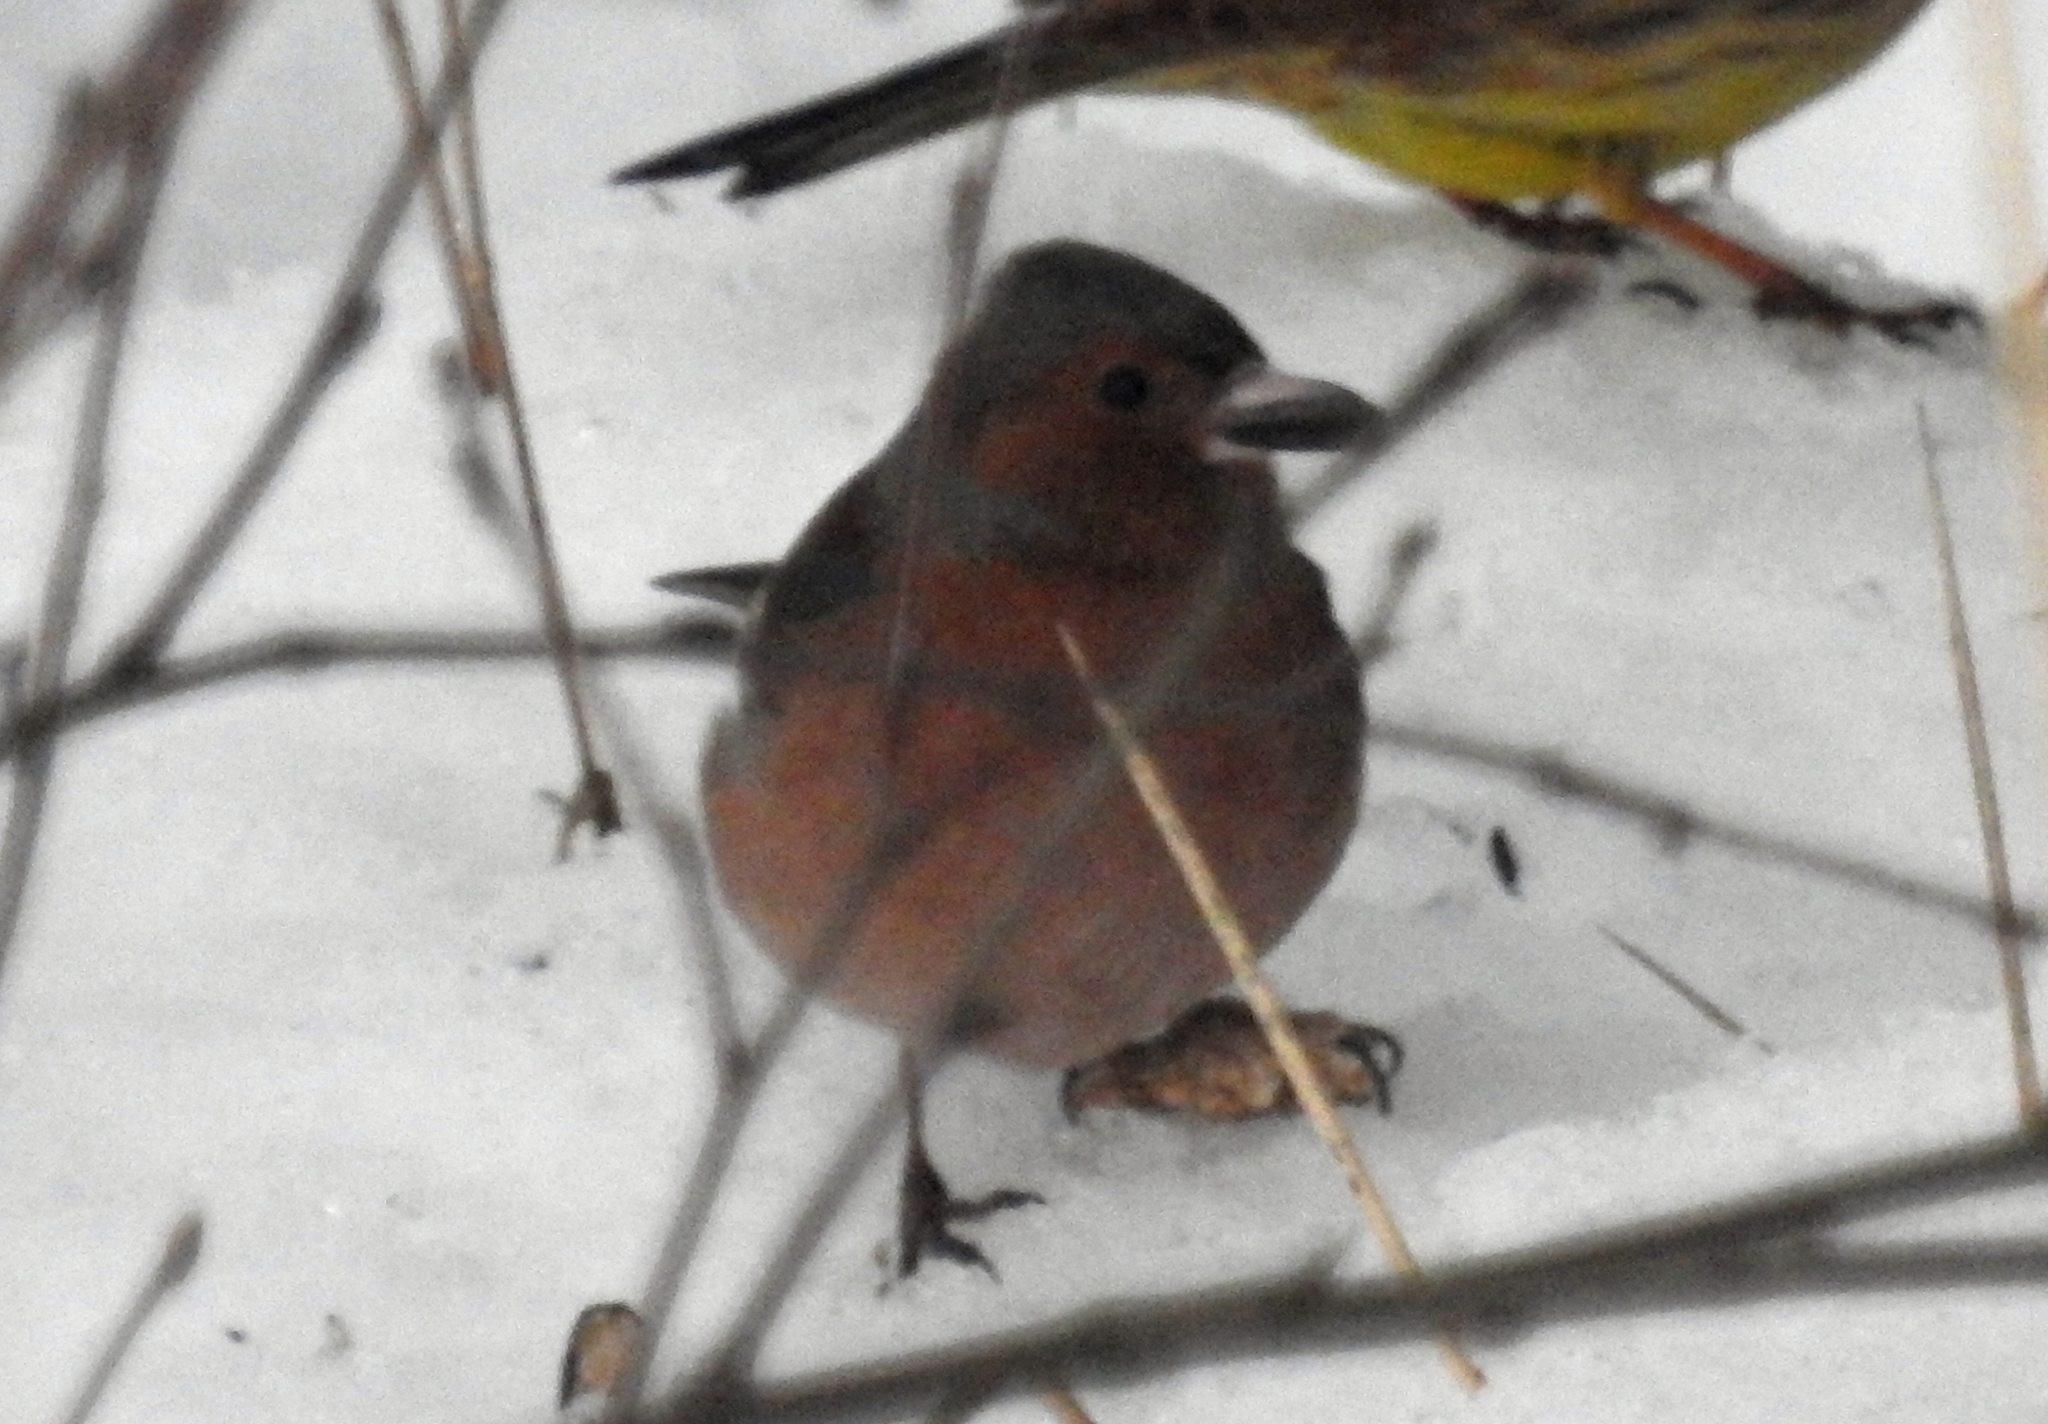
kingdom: Viruses
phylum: Cossaviricota
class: Papovaviricetes
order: Zurhausenvirales
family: Papillomaviridae
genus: Etapapillomavirus
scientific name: Etapapillomavirus
